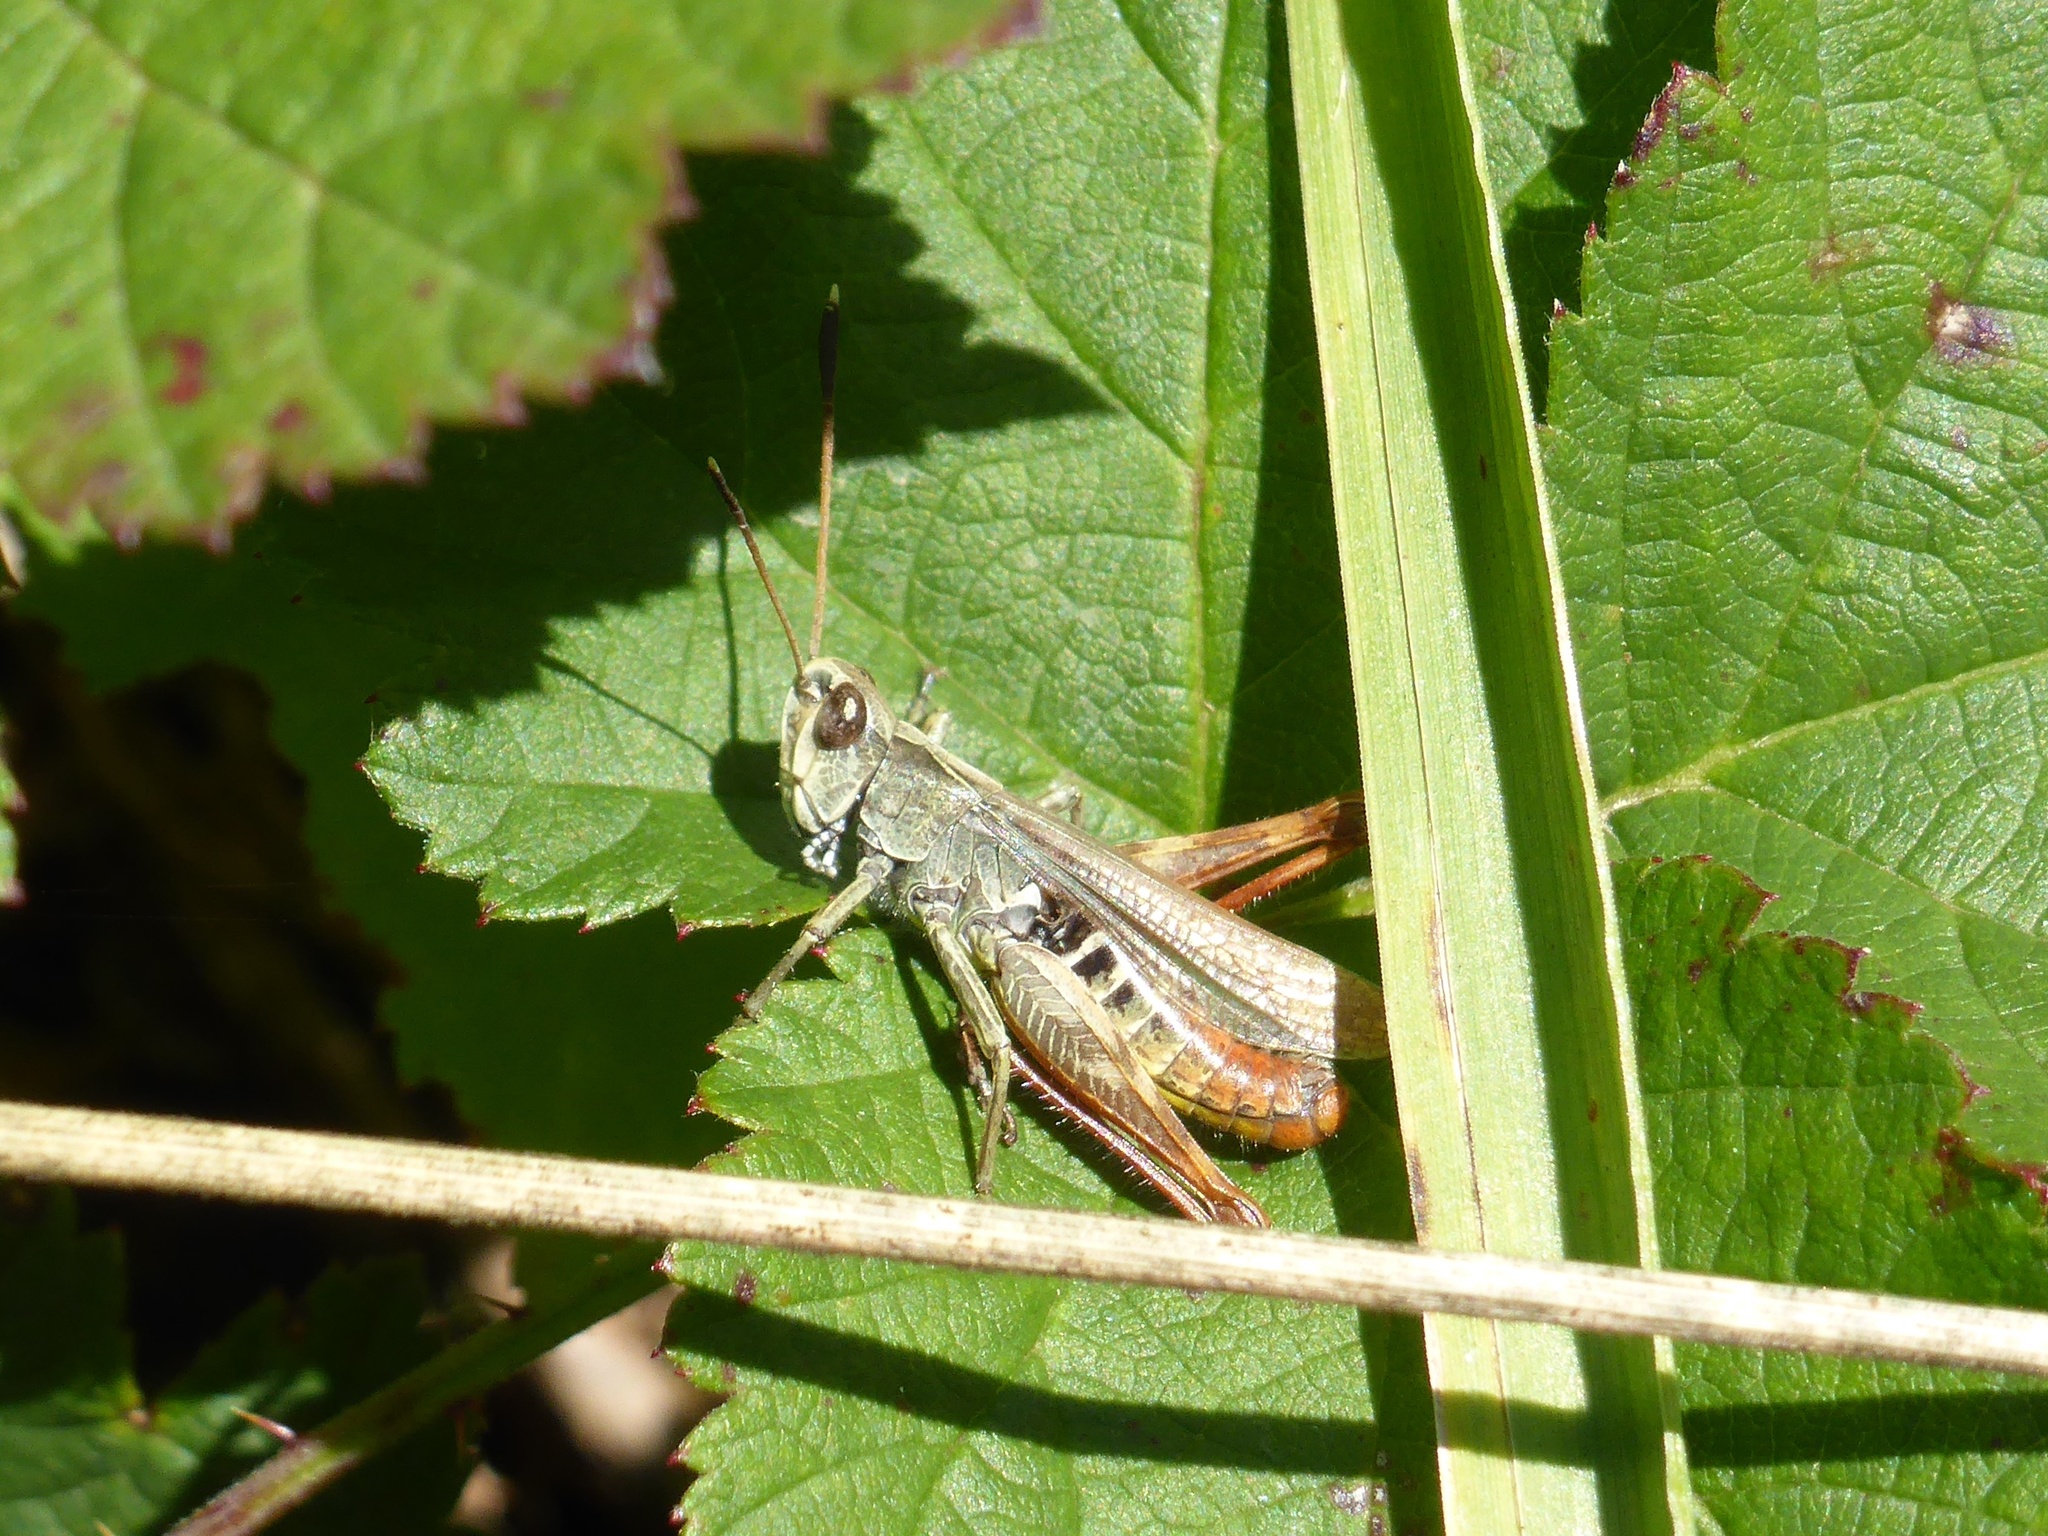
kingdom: Animalia
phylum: Arthropoda
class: Insecta
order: Orthoptera
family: Acrididae
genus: Gomphocerippus
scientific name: Gomphocerippus rufus
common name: Rufous grasshopper
